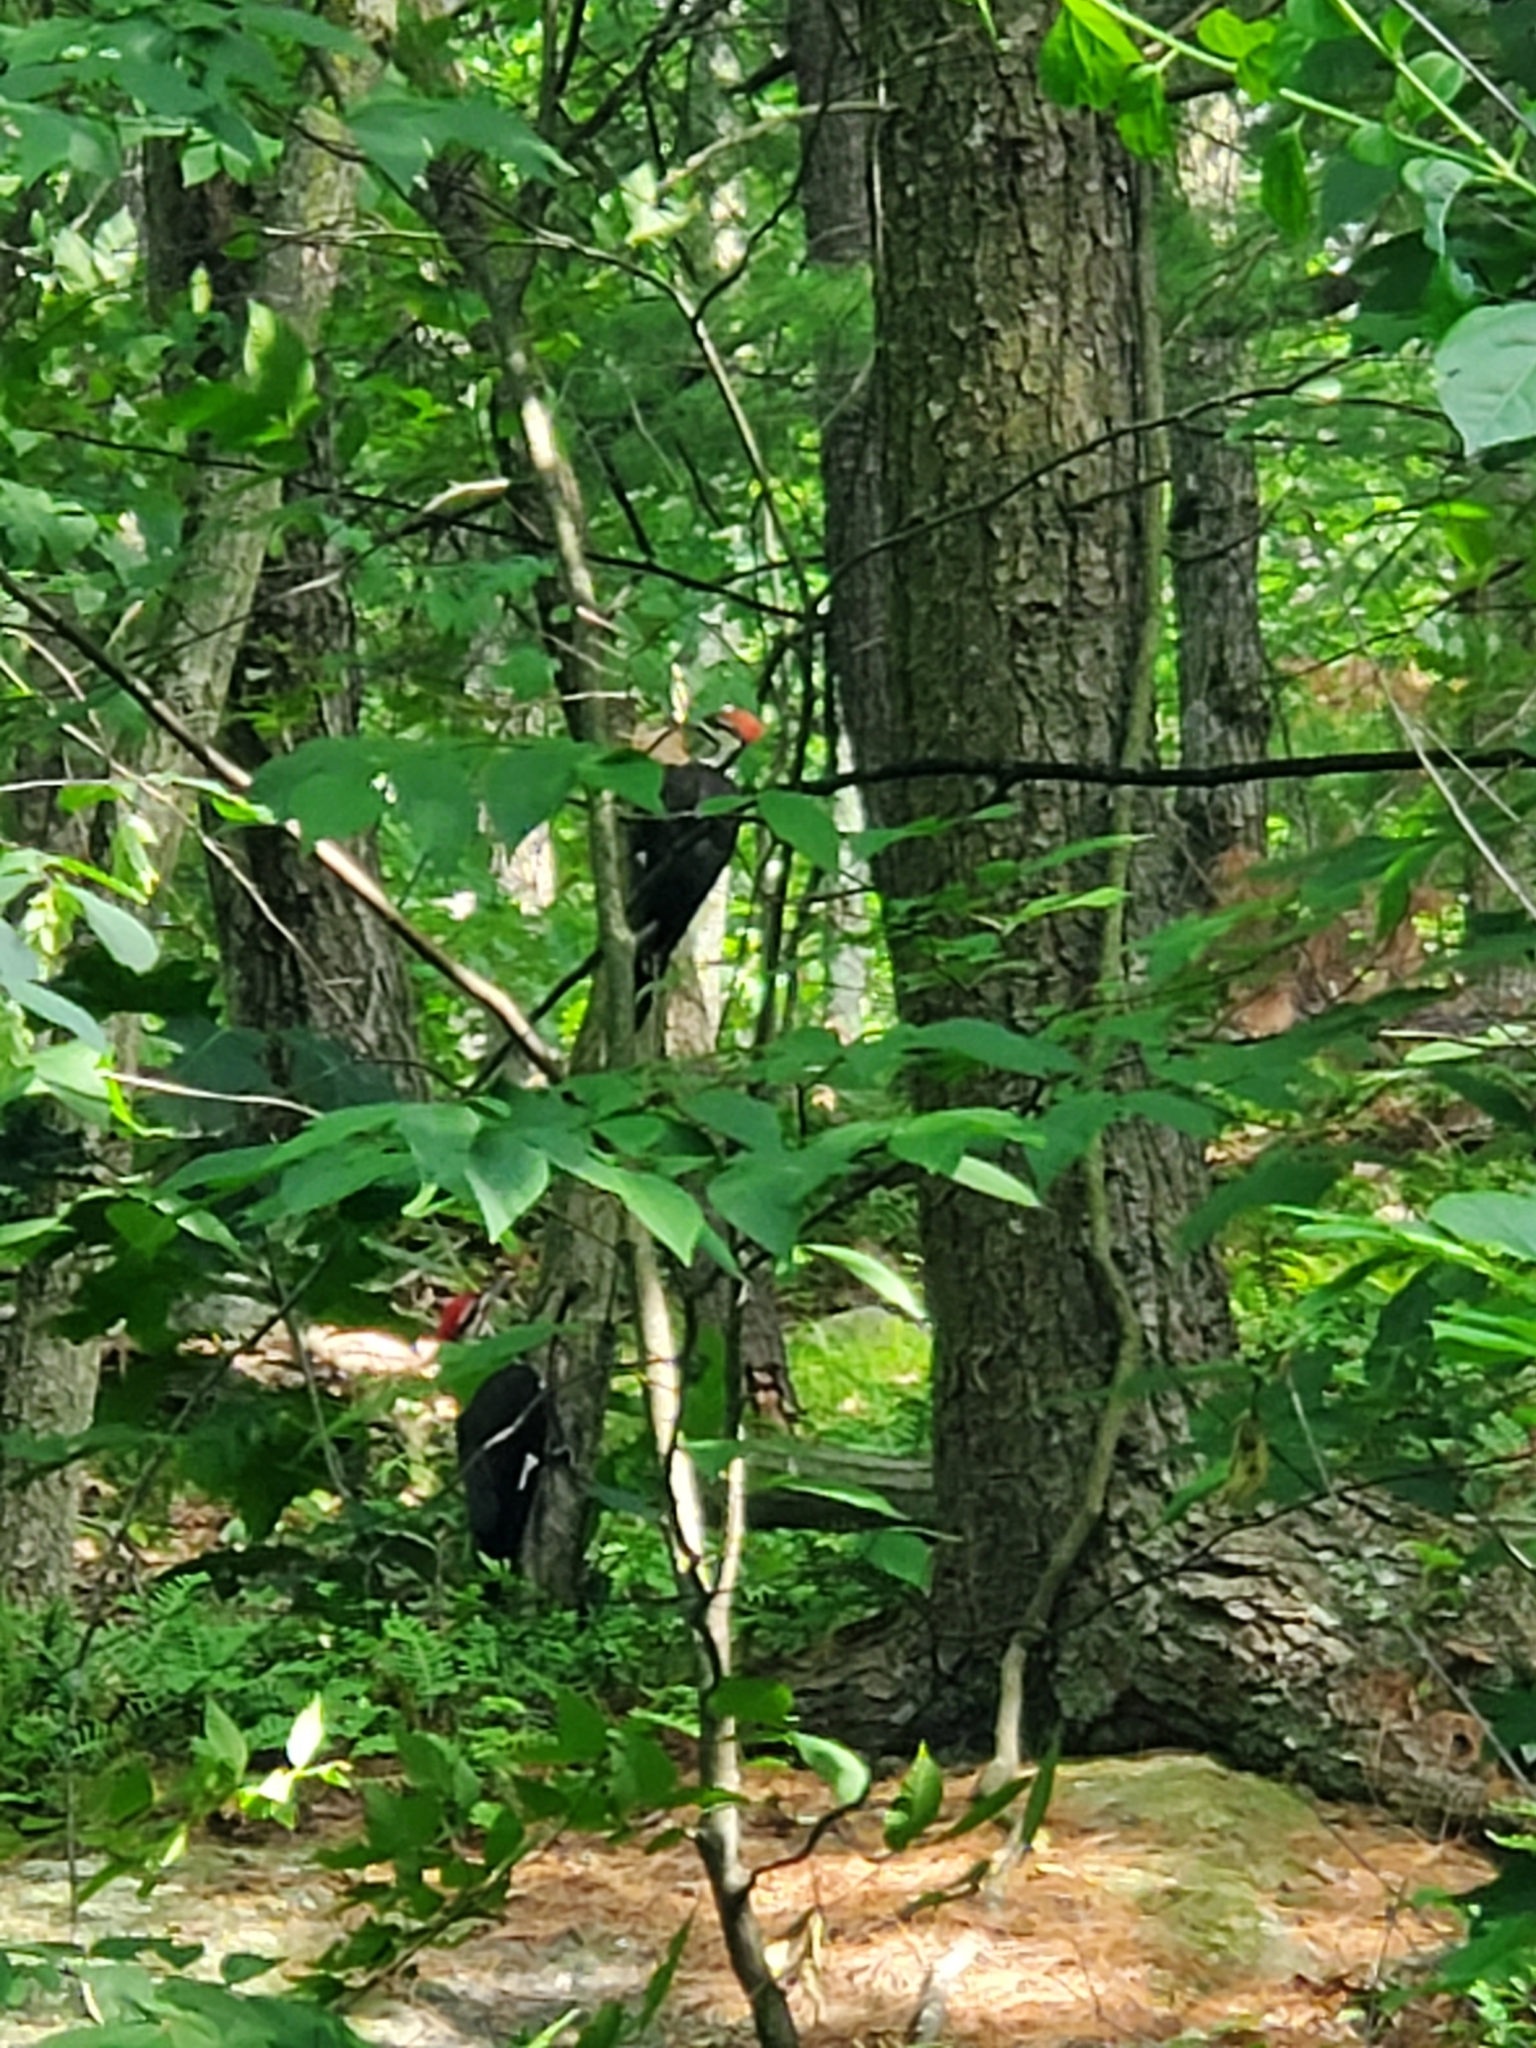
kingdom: Animalia
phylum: Chordata
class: Aves
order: Piciformes
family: Picidae
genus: Dryocopus
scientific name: Dryocopus pileatus
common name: Pileated woodpecker
